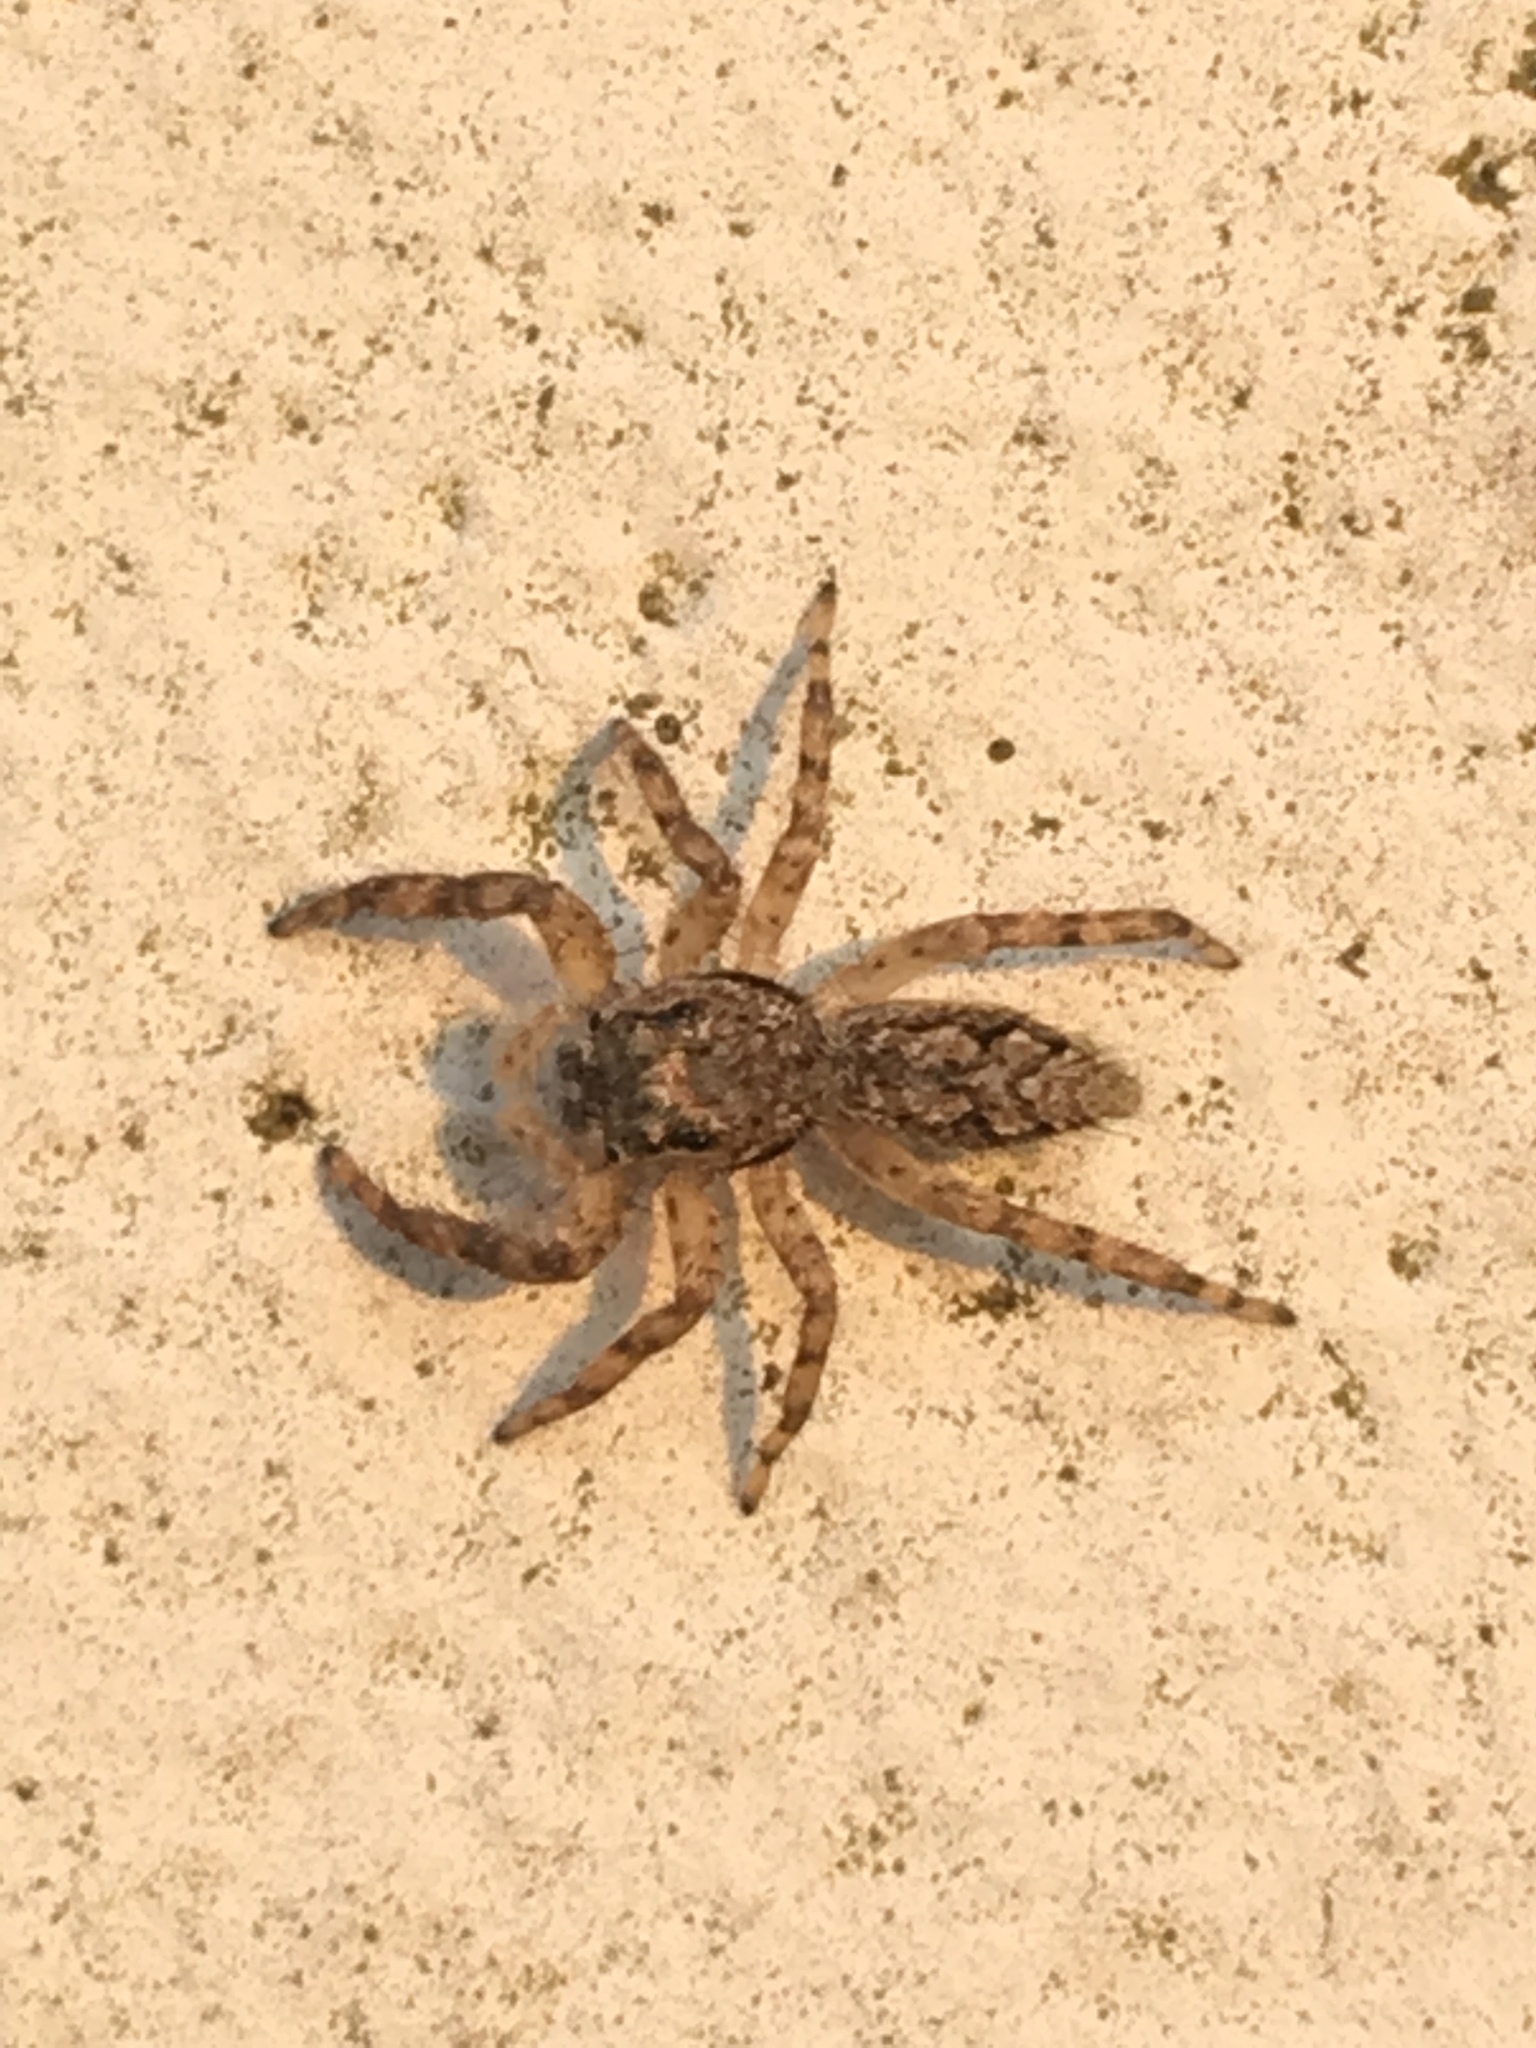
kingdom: Animalia
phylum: Arthropoda
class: Arachnida
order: Araneae
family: Salticidae
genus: Platycryptus
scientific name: Platycryptus undatus
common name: Tan jumping spider
